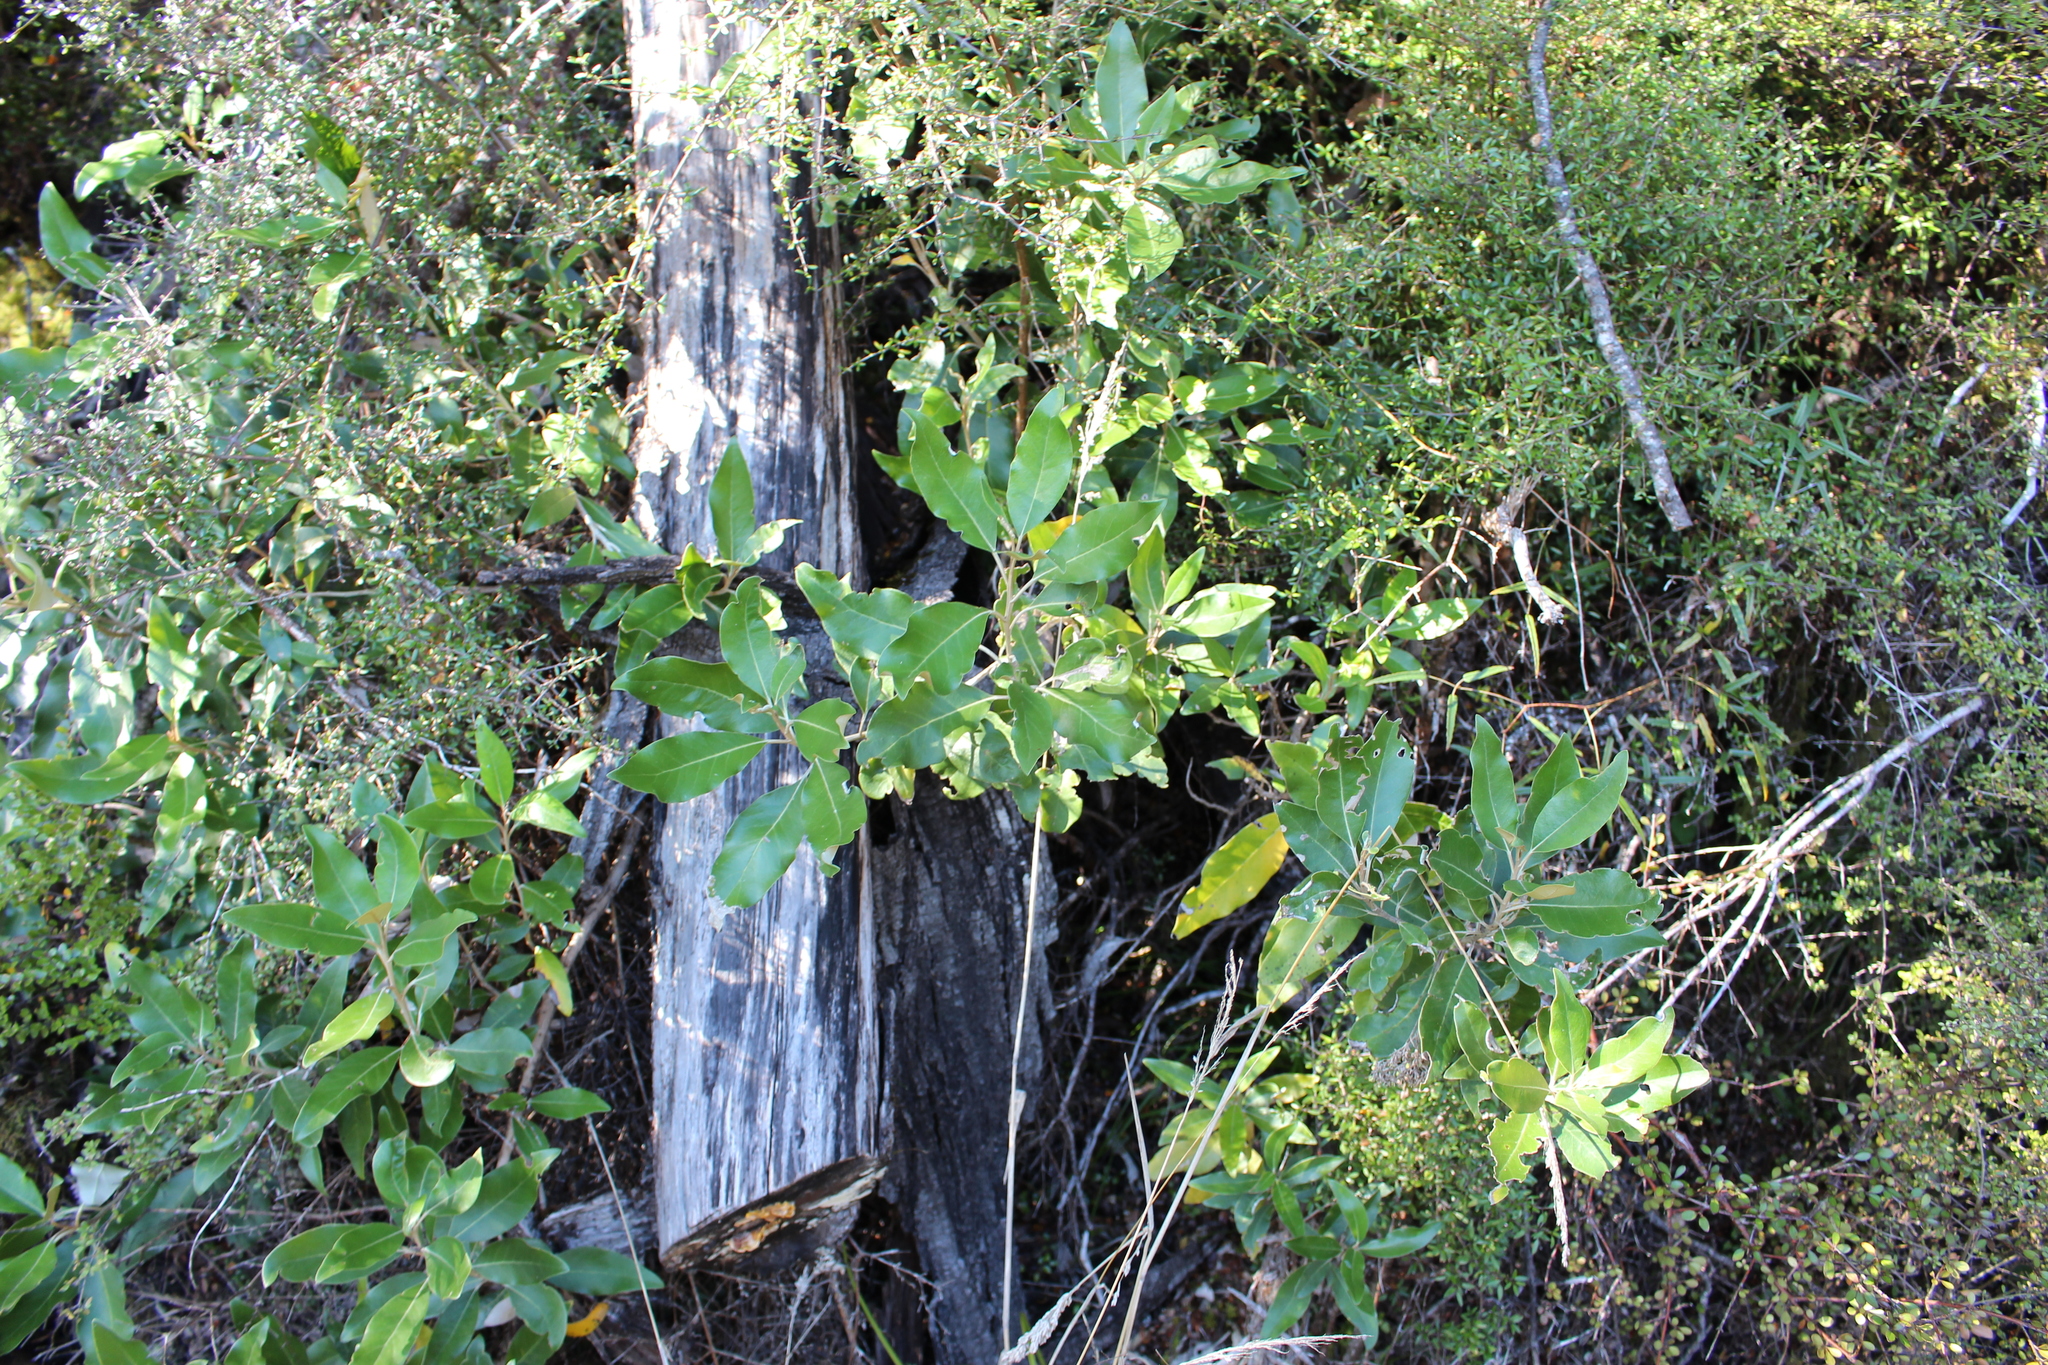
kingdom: Plantae
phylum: Tracheophyta
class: Magnoliopsida
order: Asterales
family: Asteraceae
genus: Olearia
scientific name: Olearia avicenniifolia
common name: Mangrove-leaf daisybush
